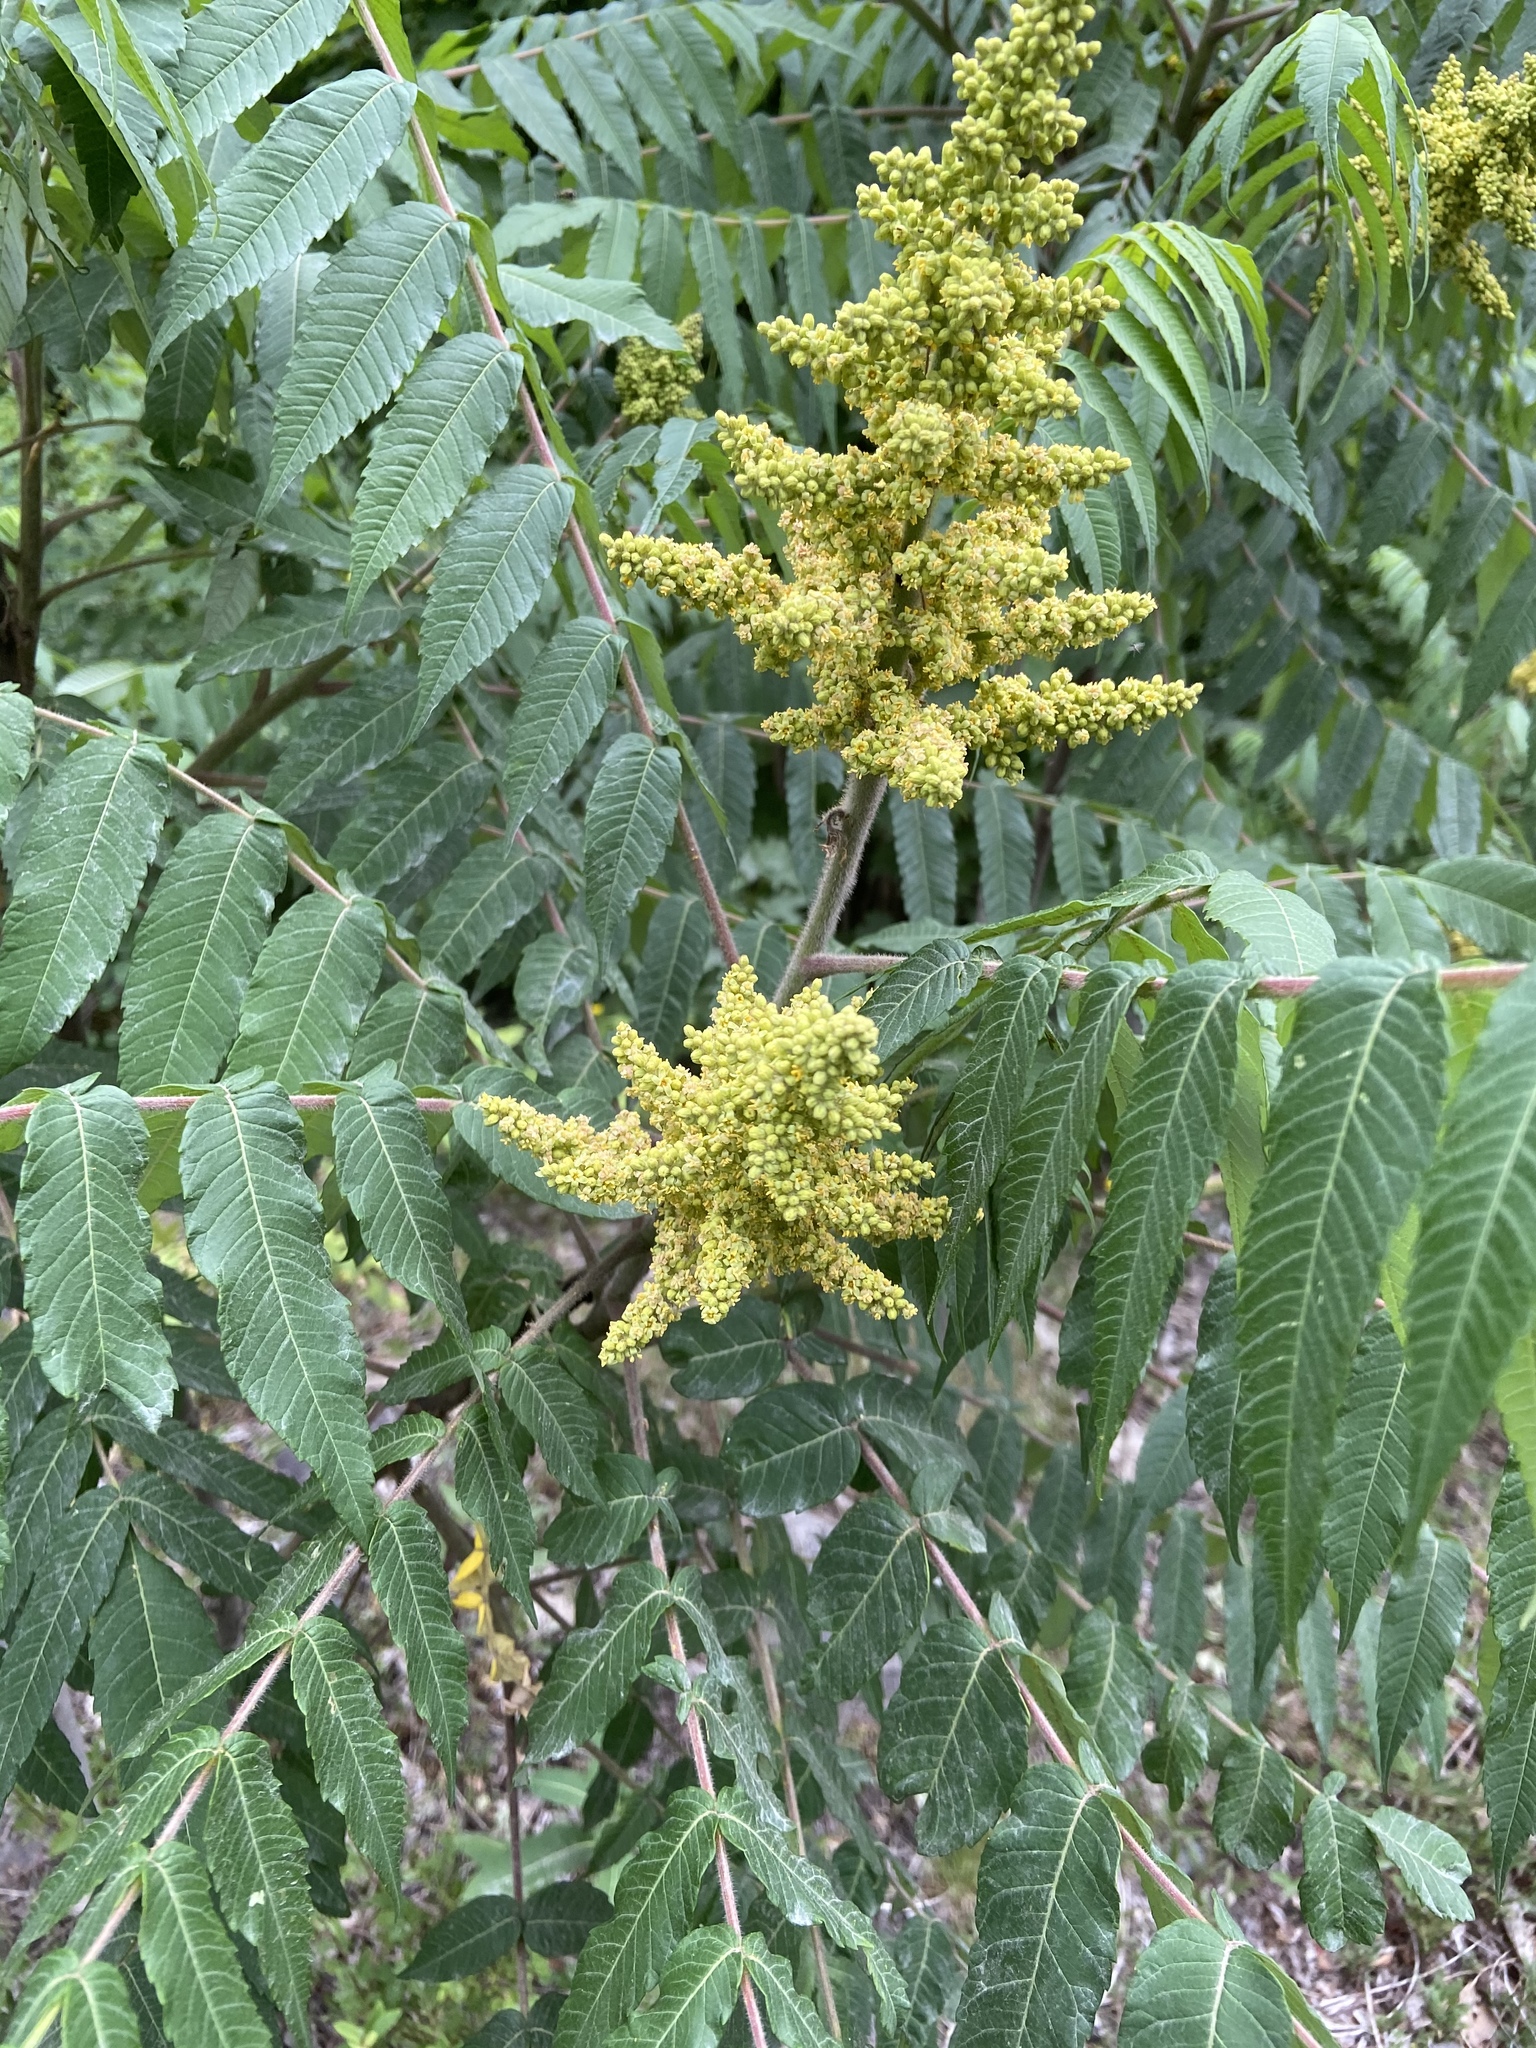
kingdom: Plantae
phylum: Tracheophyta
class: Magnoliopsida
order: Sapindales
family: Anacardiaceae
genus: Rhus
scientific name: Rhus typhina
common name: Staghorn sumac
